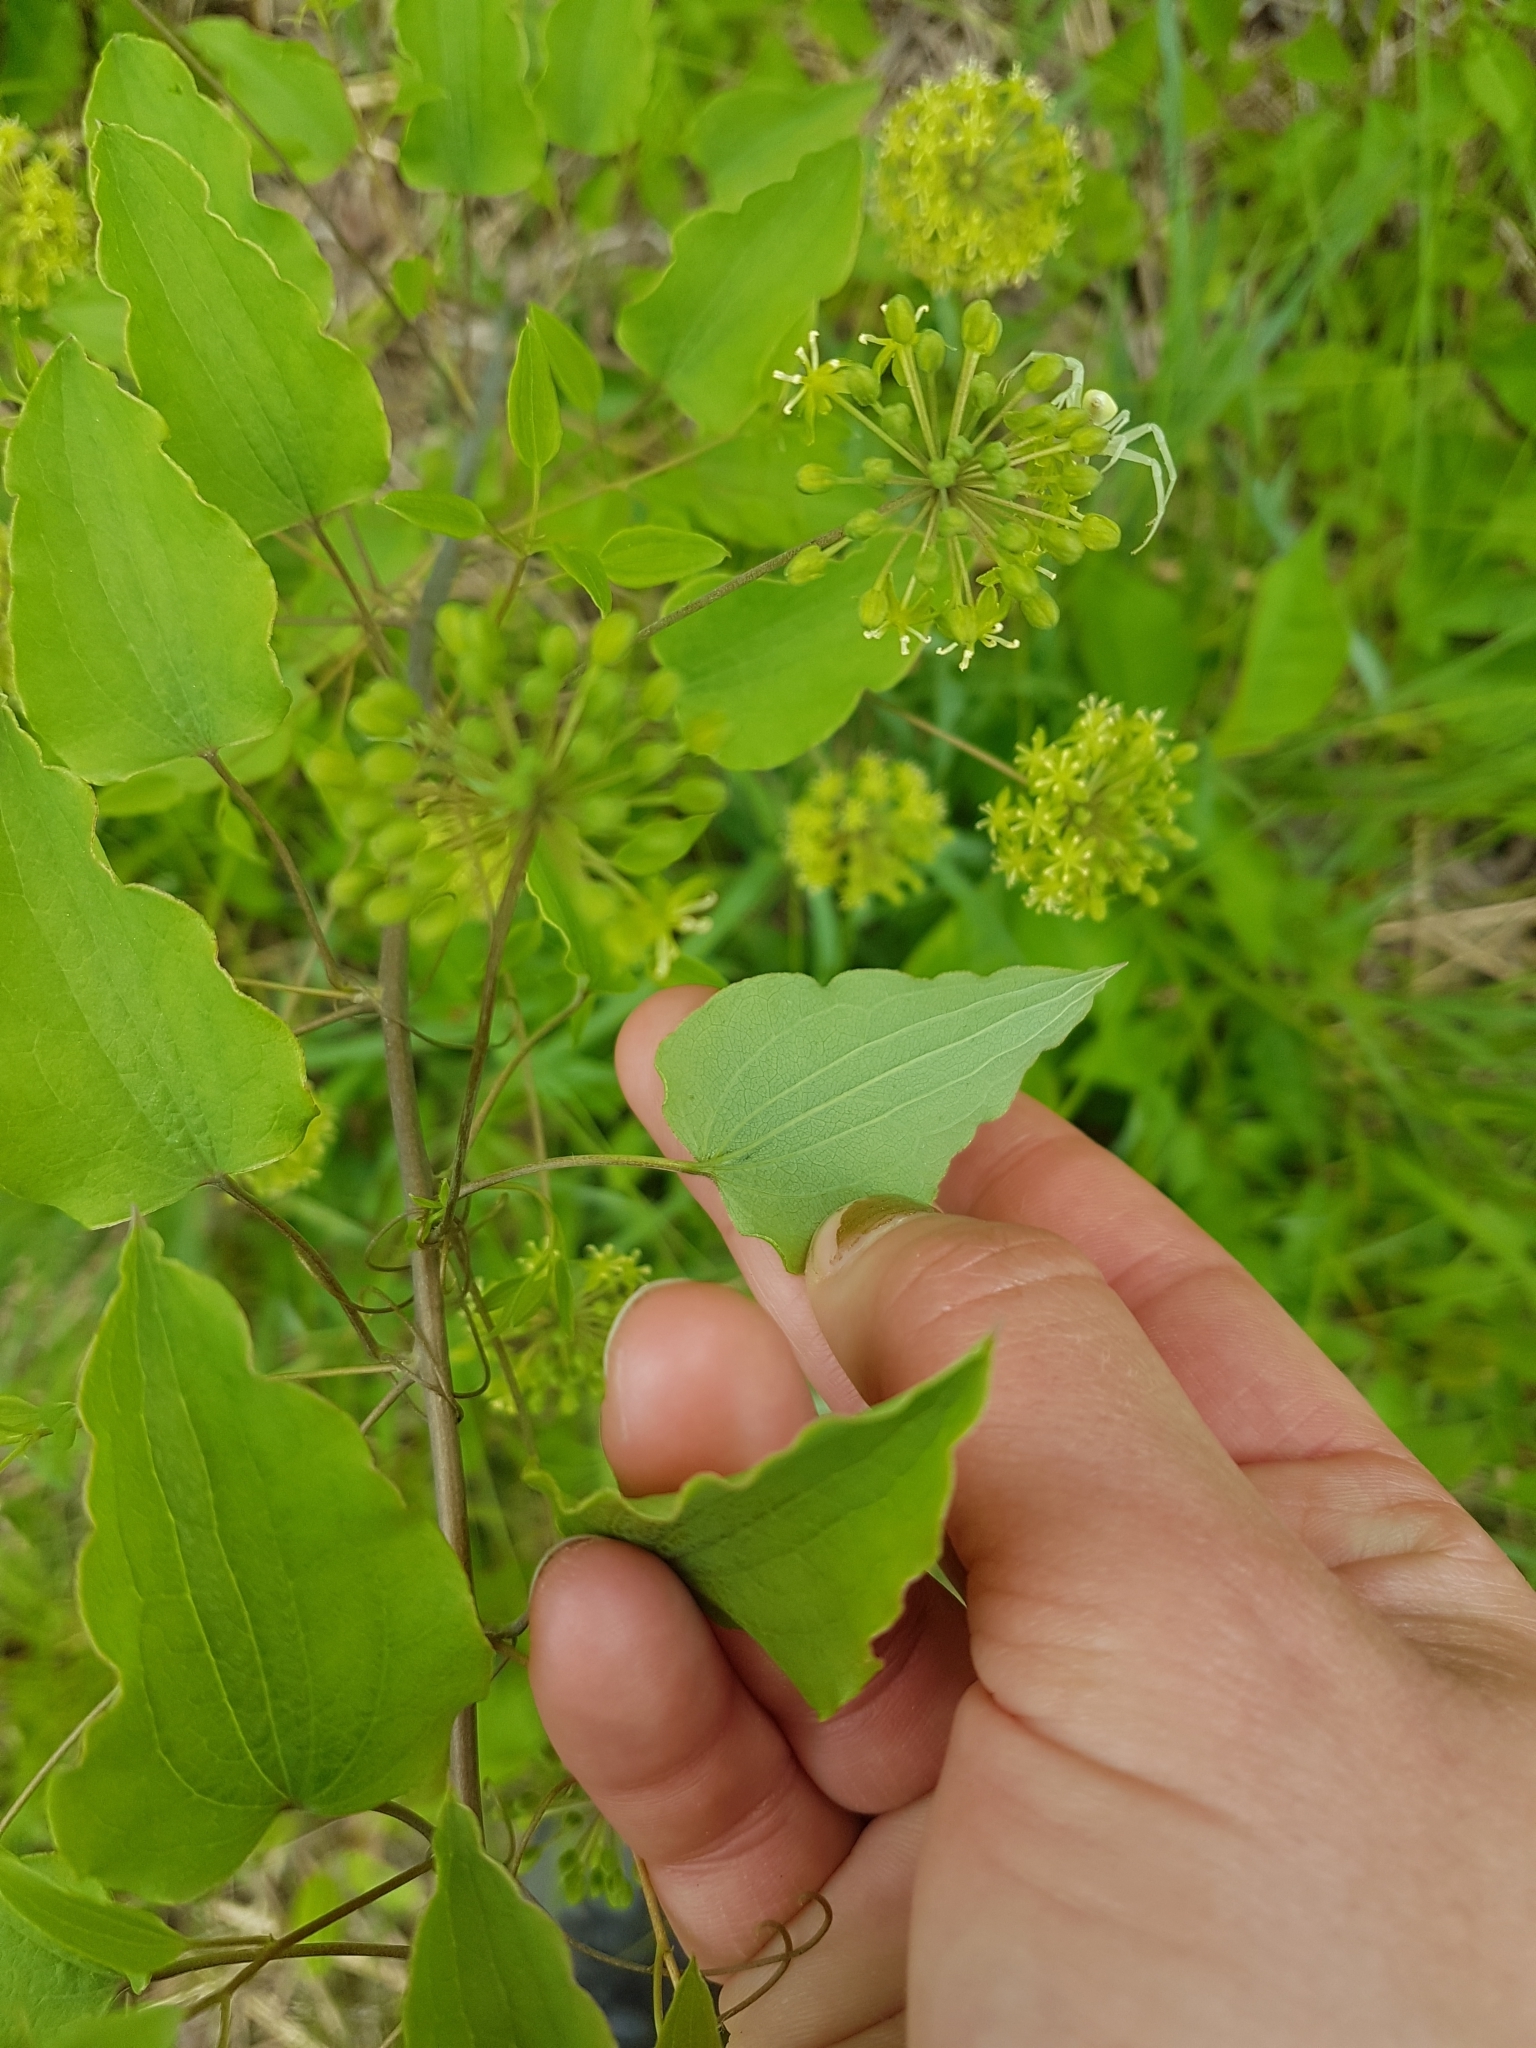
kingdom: Plantae
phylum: Tracheophyta
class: Liliopsida
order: Liliales
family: Smilacaceae
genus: Smilax
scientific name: Smilax herbacea
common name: Jacob's-ladder
